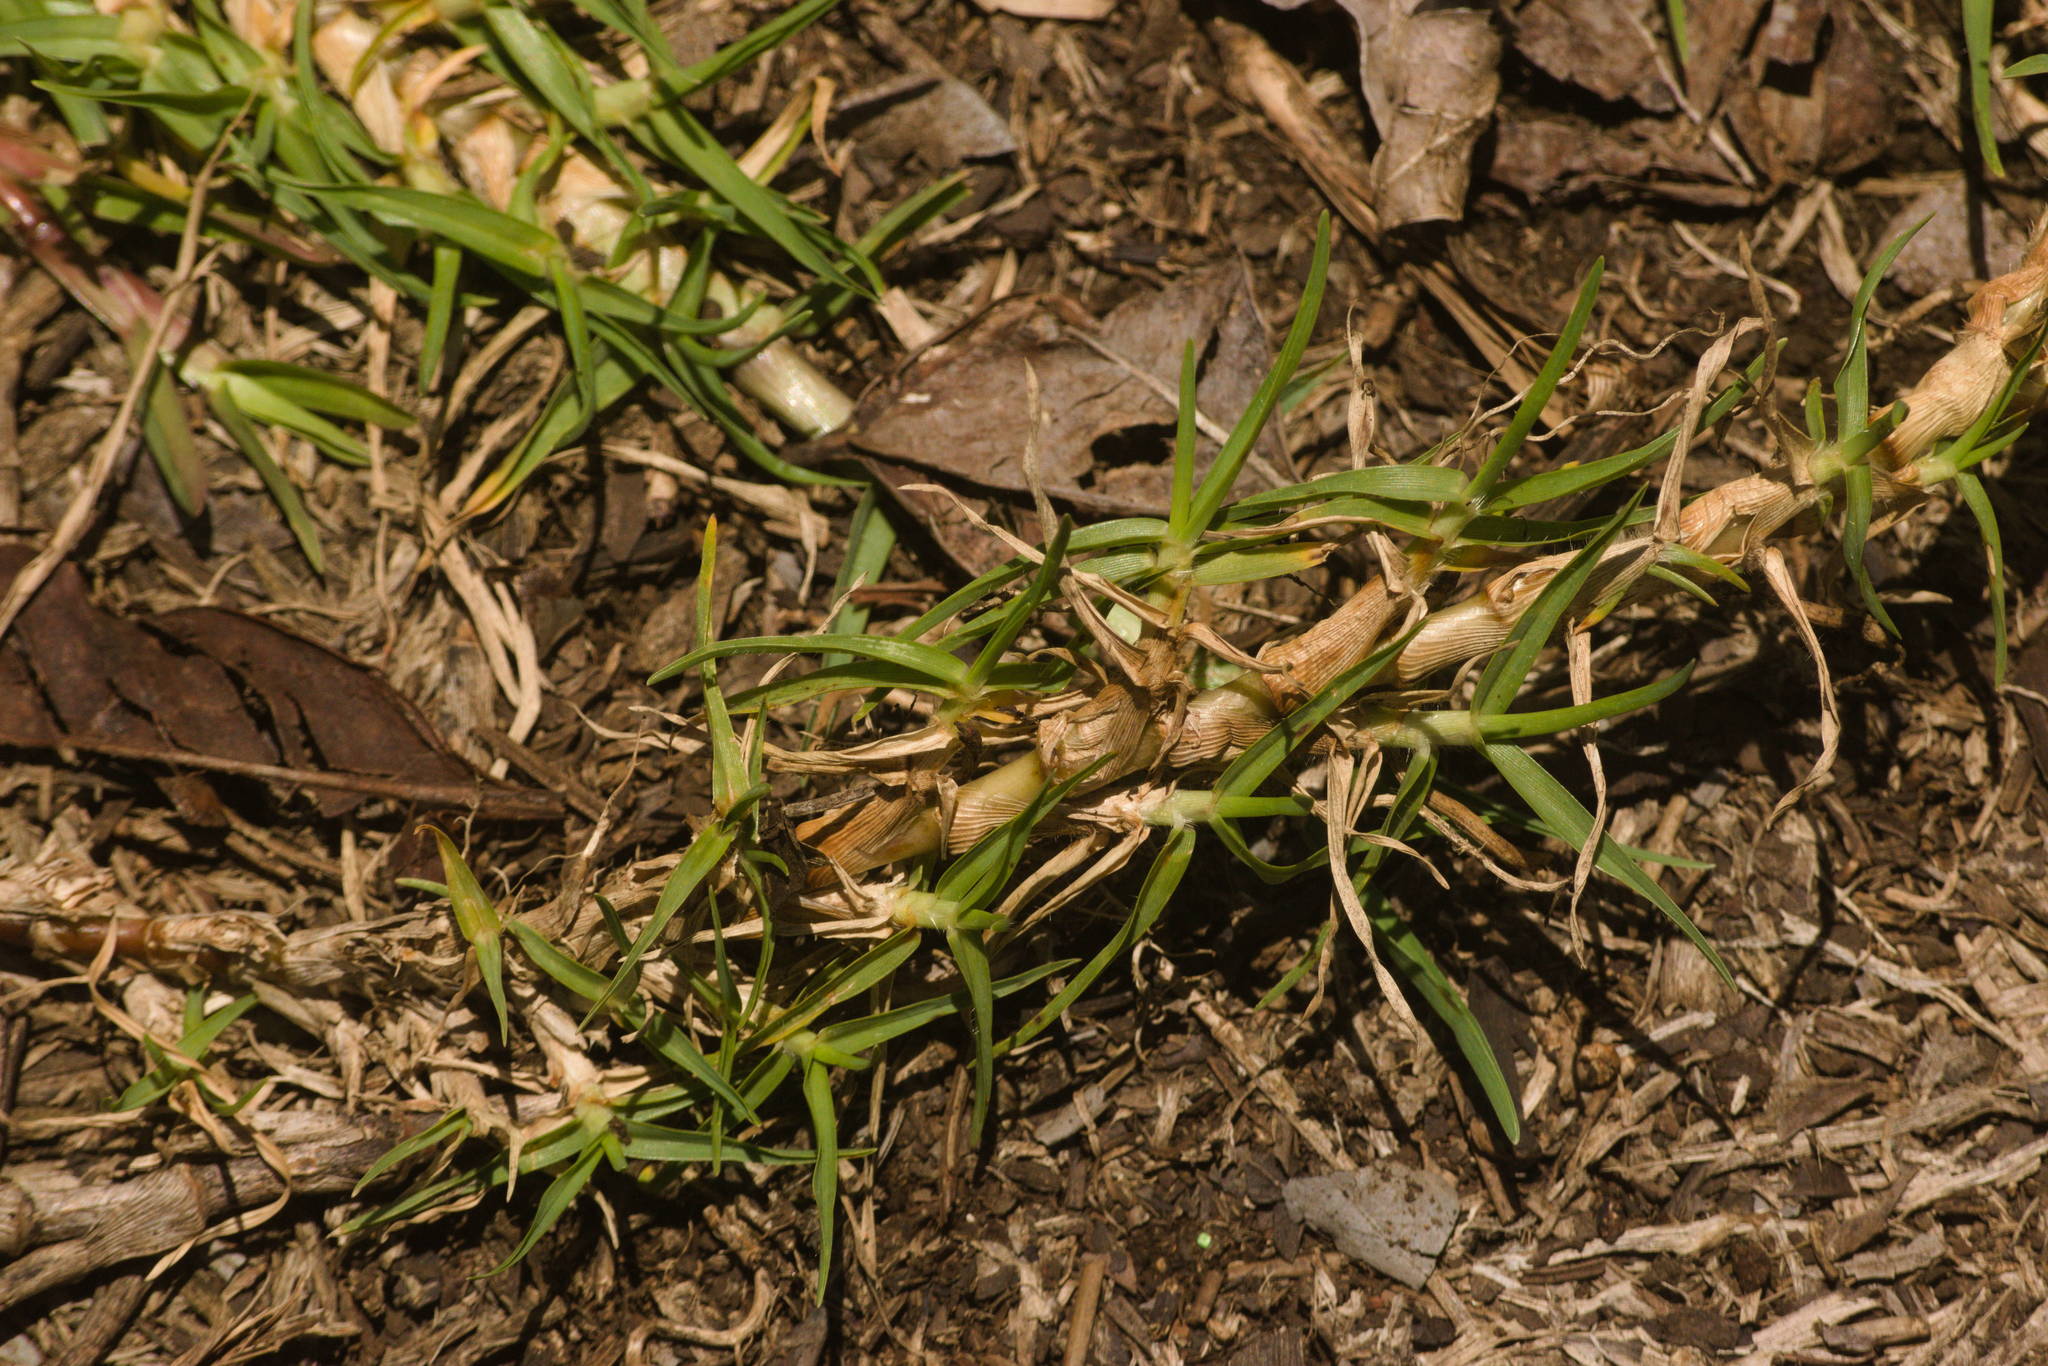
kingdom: Plantae
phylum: Tracheophyta
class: Liliopsida
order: Poales
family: Poaceae
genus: Cenchrus
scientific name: Cenchrus clandestinus
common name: Kikuyugrass
